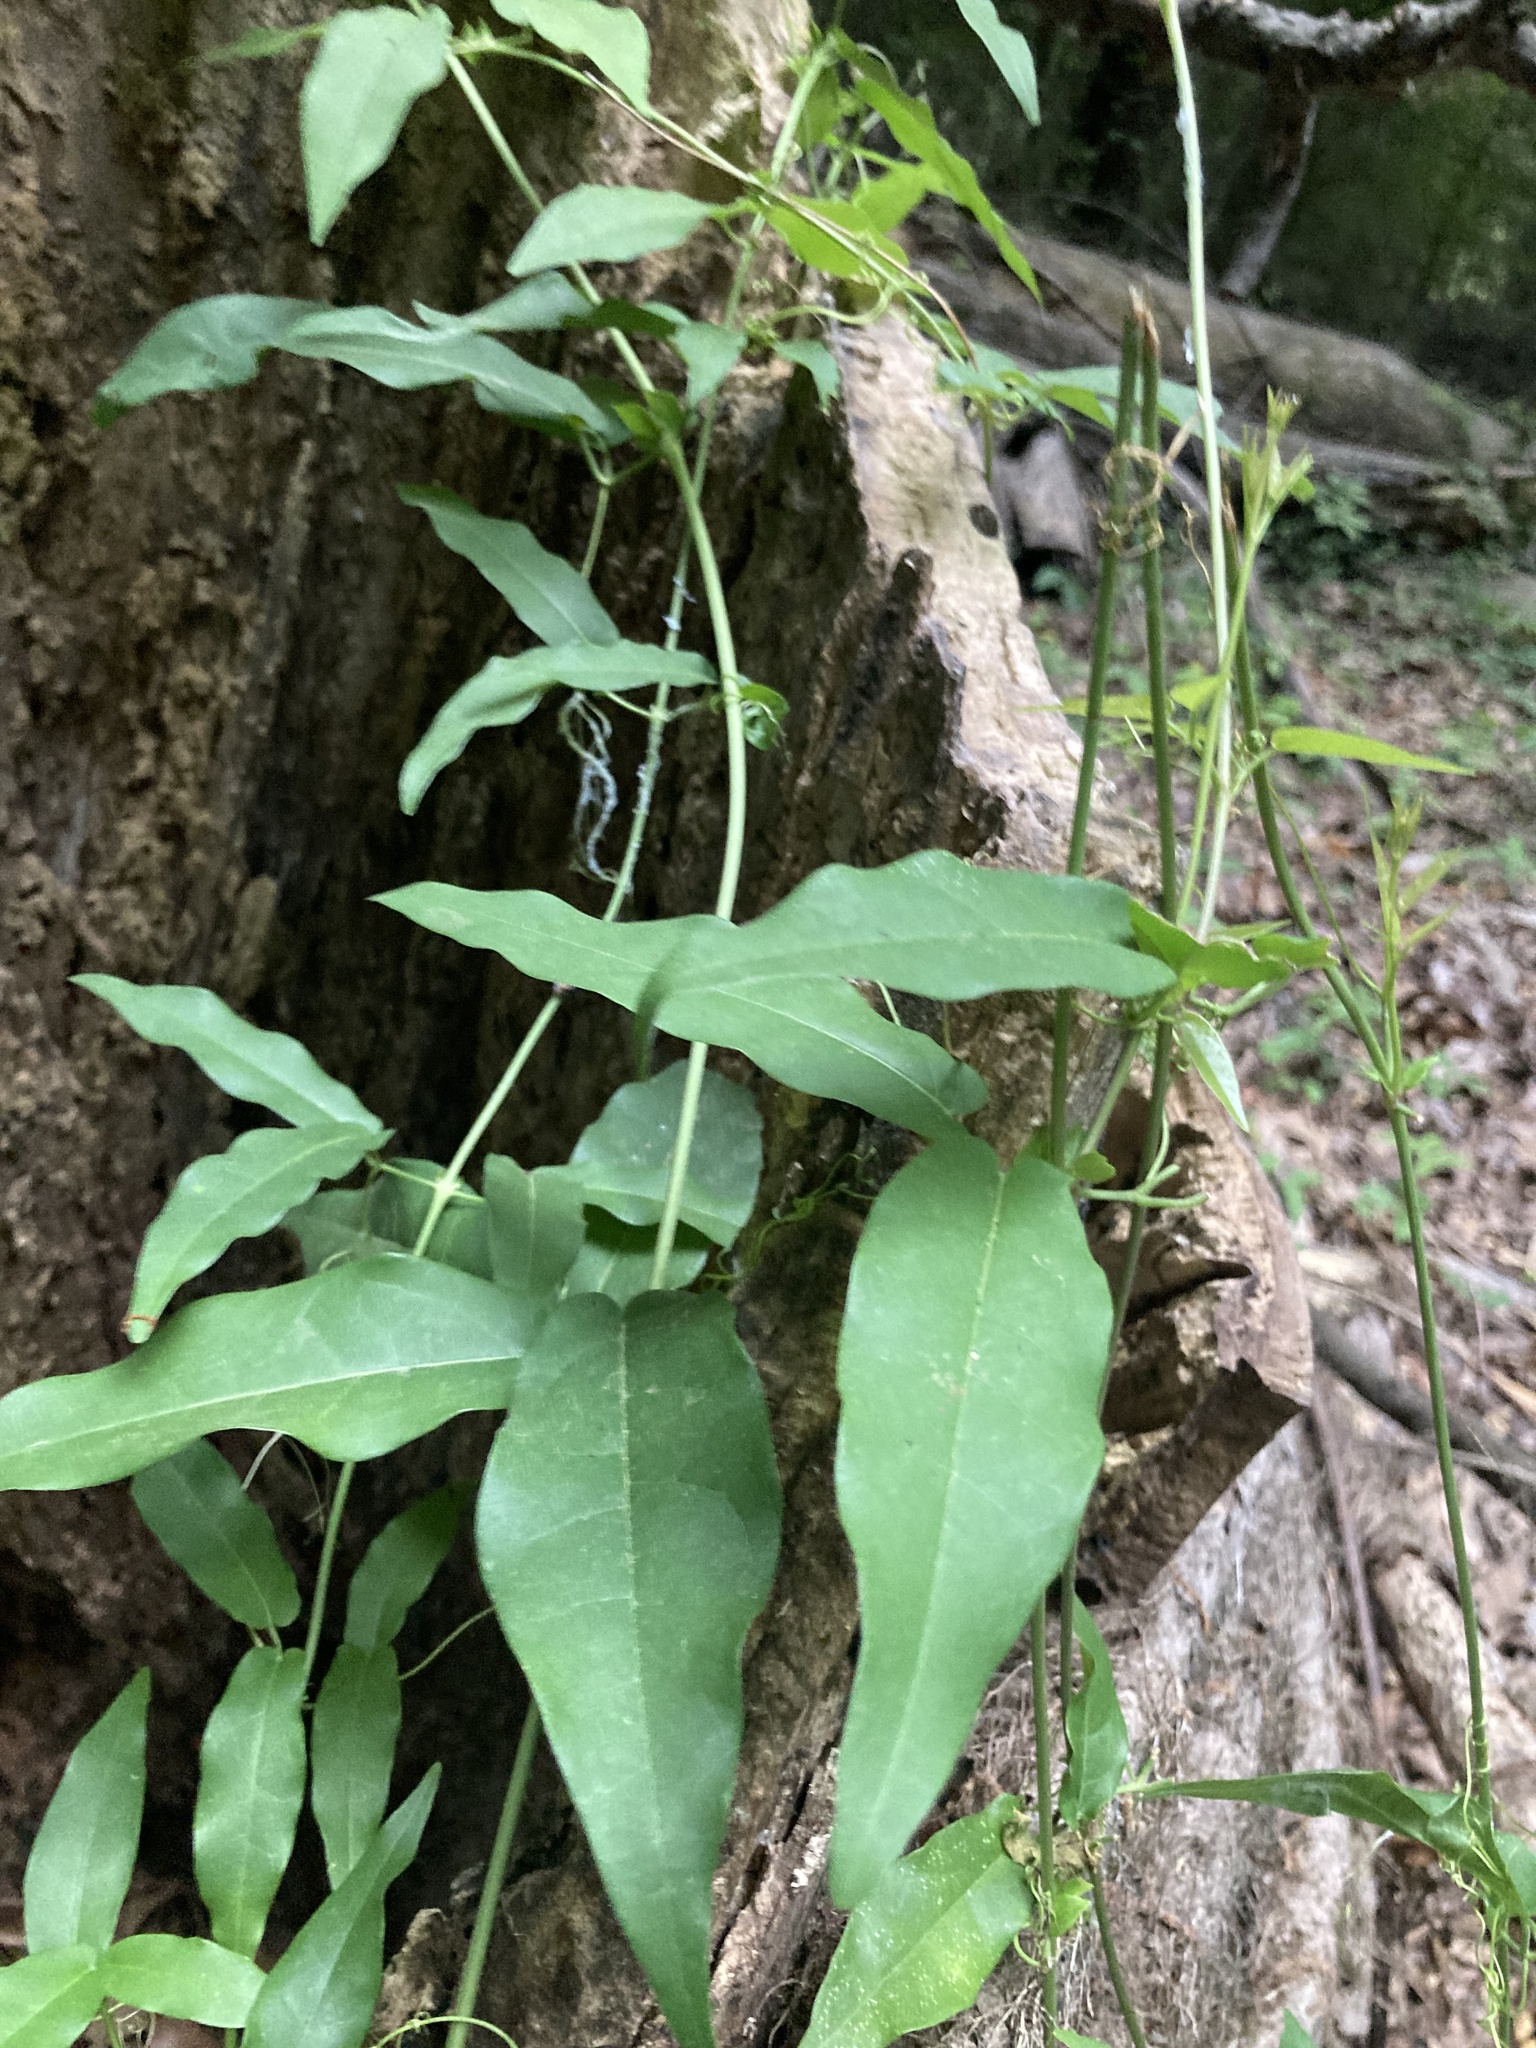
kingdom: Plantae
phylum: Tracheophyta
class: Magnoliopsida
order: Lamiales
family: Bignoniaceae
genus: Bignonia
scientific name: Bignonia capreolata
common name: Crossvine
